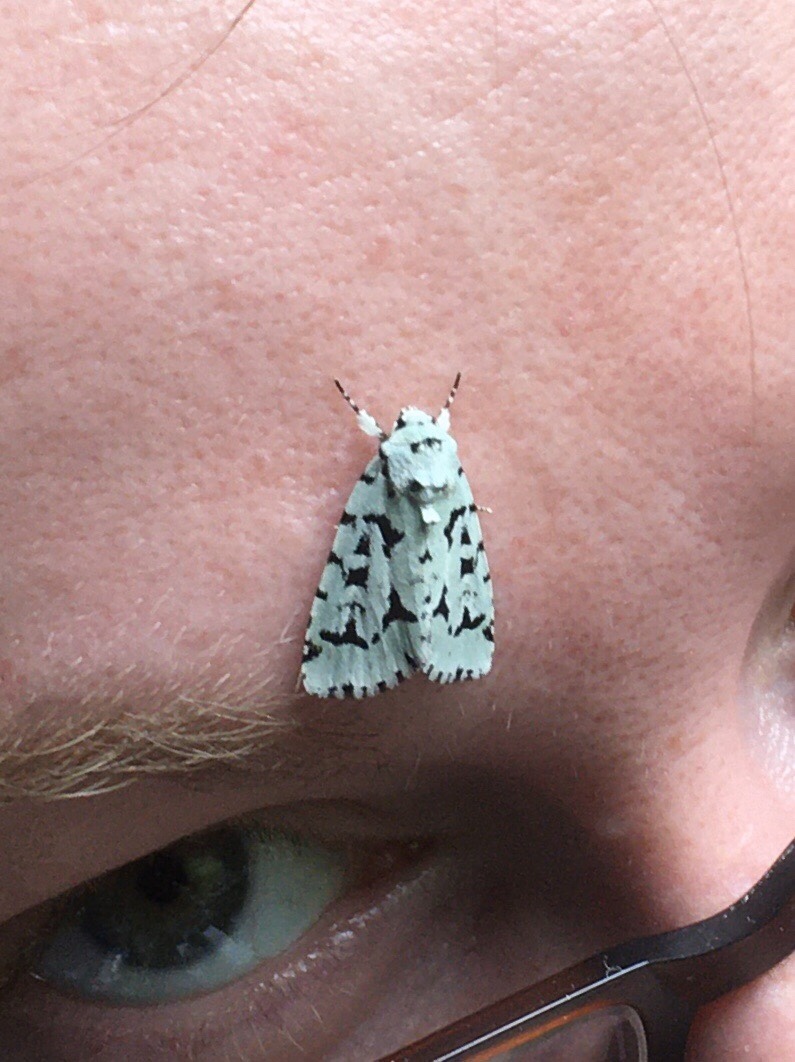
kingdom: Animalia
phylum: Arthropoda
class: Insecta
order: Lepidoptera
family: Noctuidae
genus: Acronicta
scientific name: Acronicta fallax
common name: Green marvel
